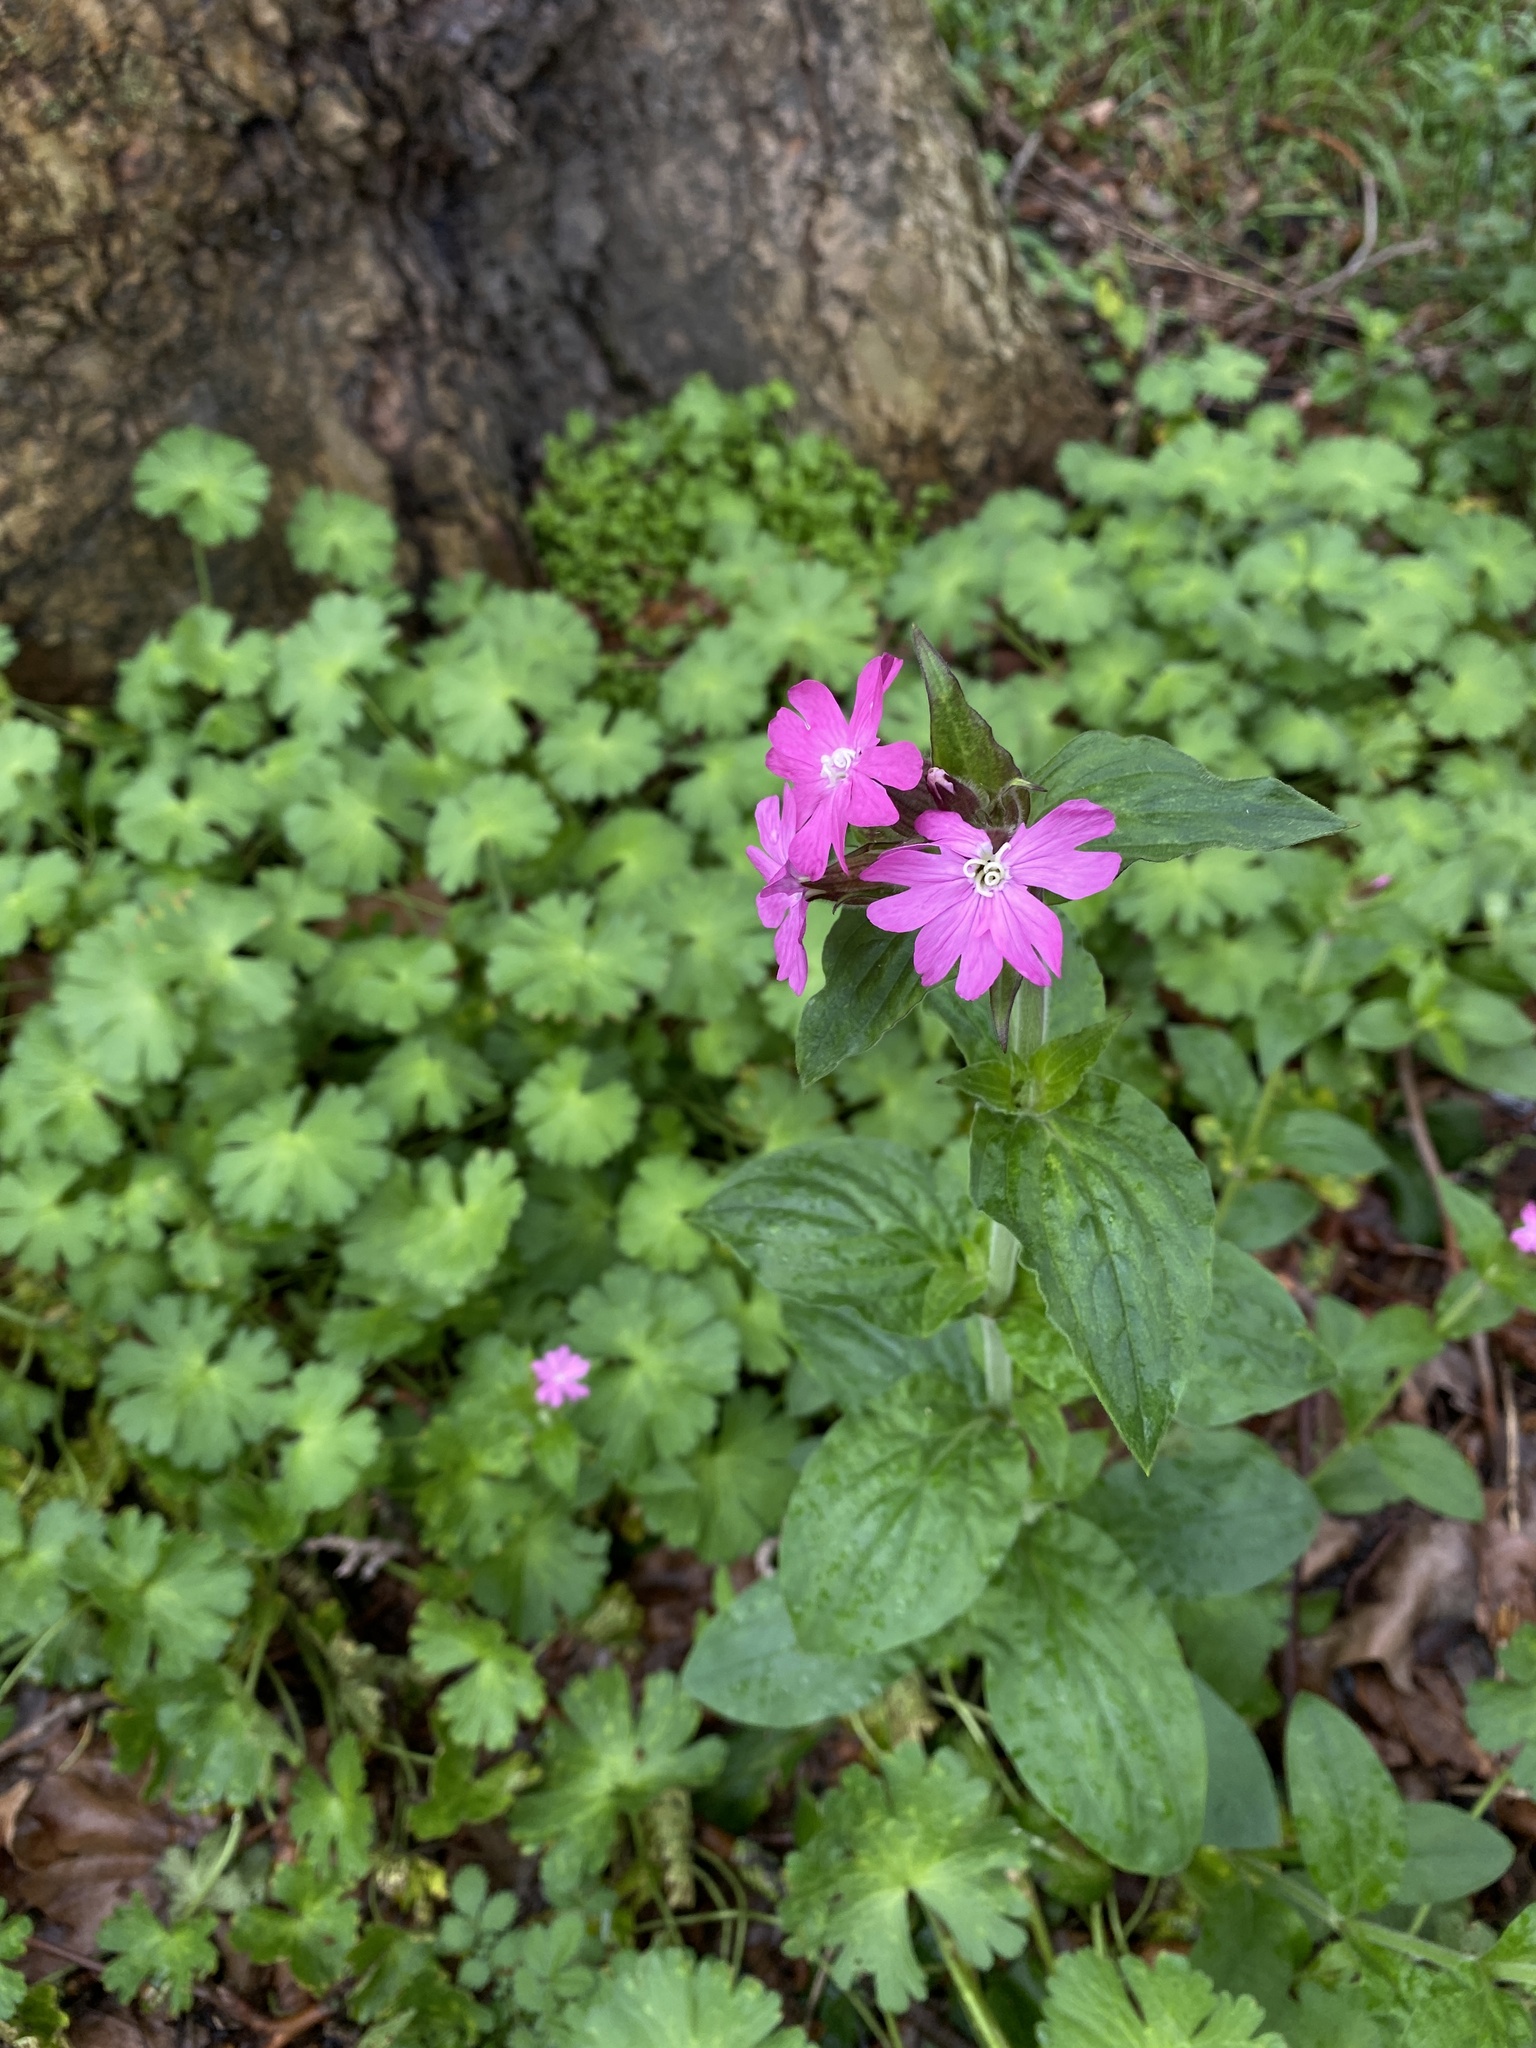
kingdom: Plantae
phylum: Tracheophyta
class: Magnoliopsida
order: Caryophyllales
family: Caryophyllaceae
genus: Silene
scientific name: Silene dioica
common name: Red campion
